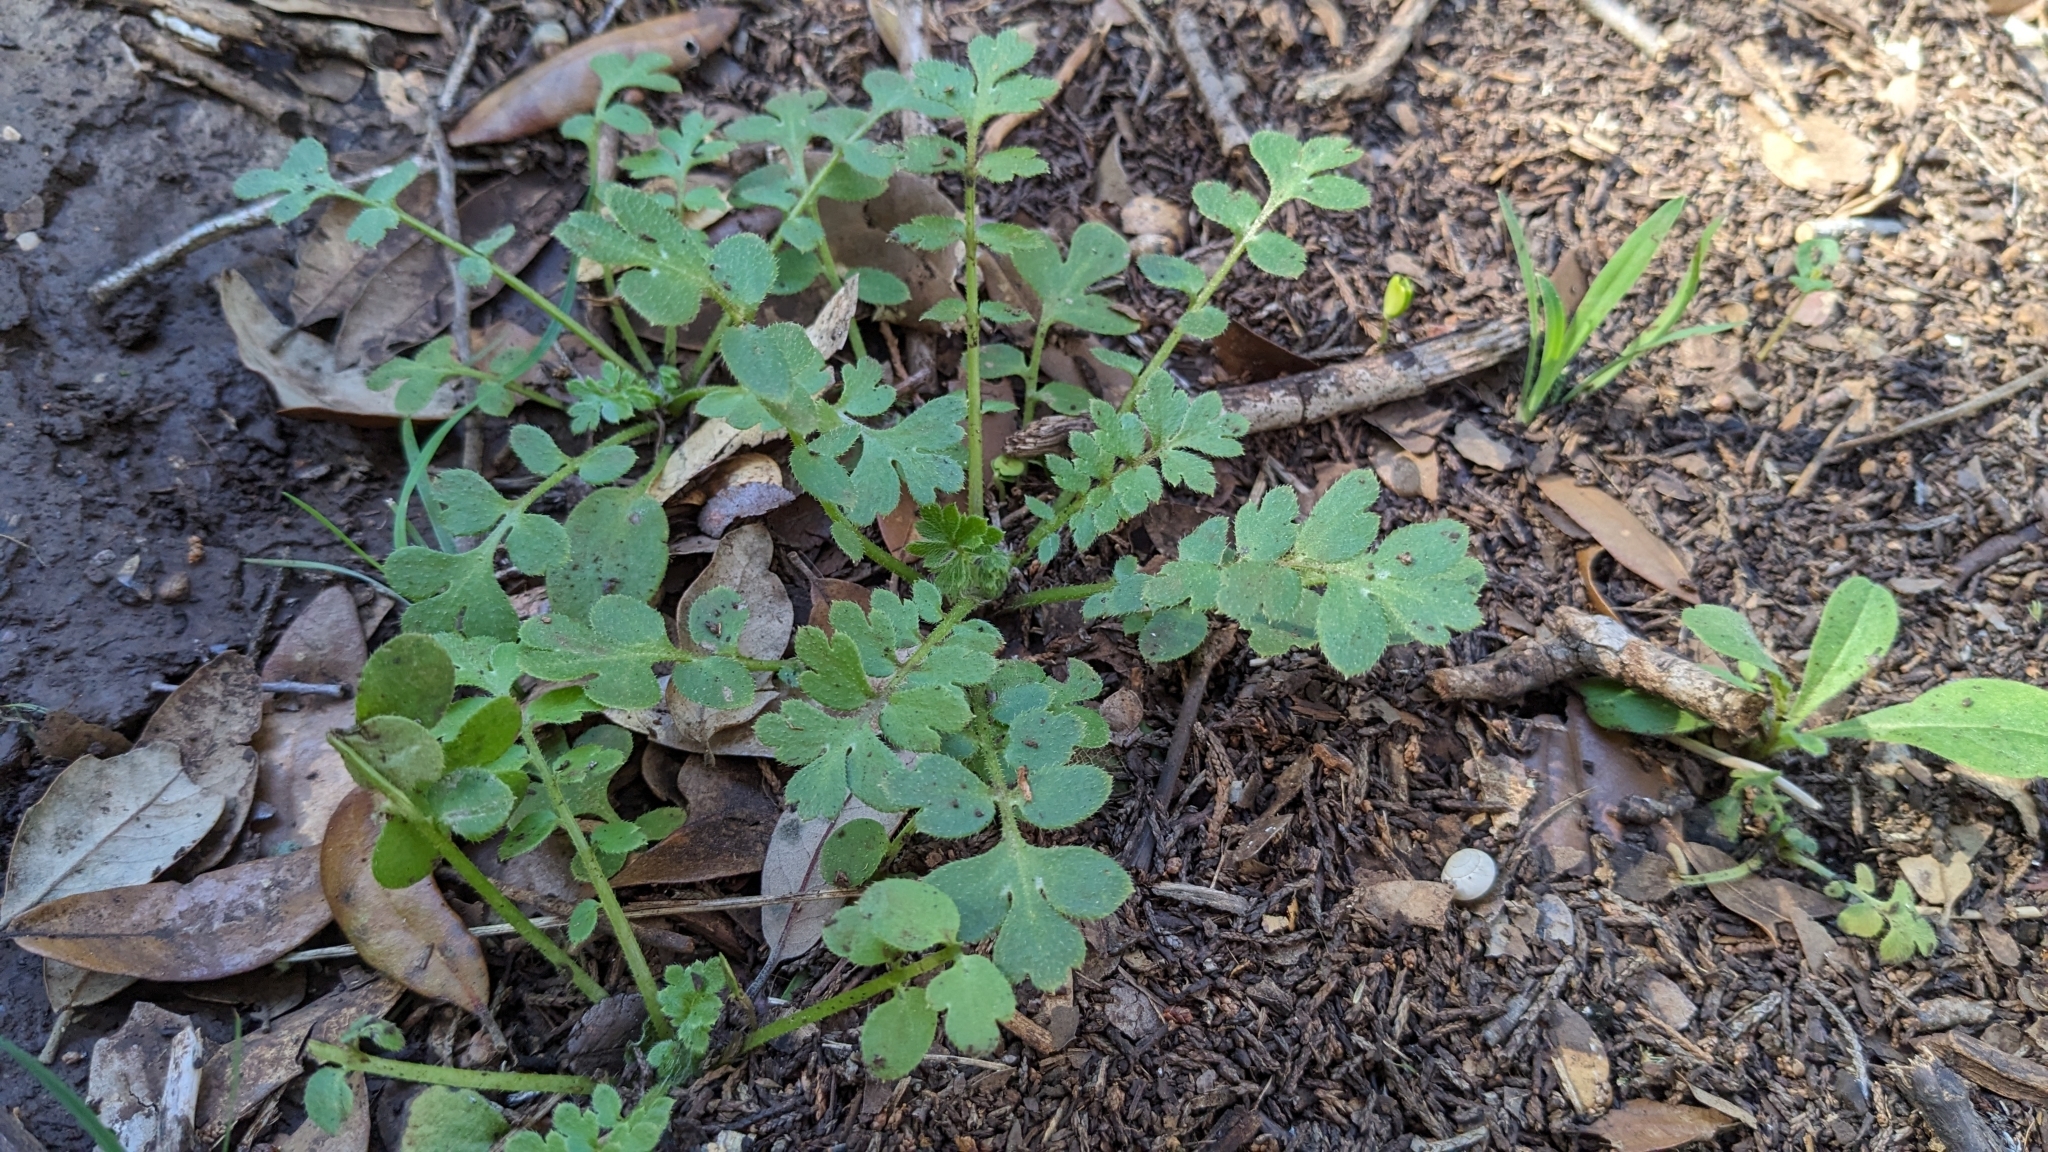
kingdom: Plantae
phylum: Tracheophyta
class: Magnoliopsida
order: Boraginales
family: Hydrophyllaceae
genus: Nemophila
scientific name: Nemophila phacelioides
